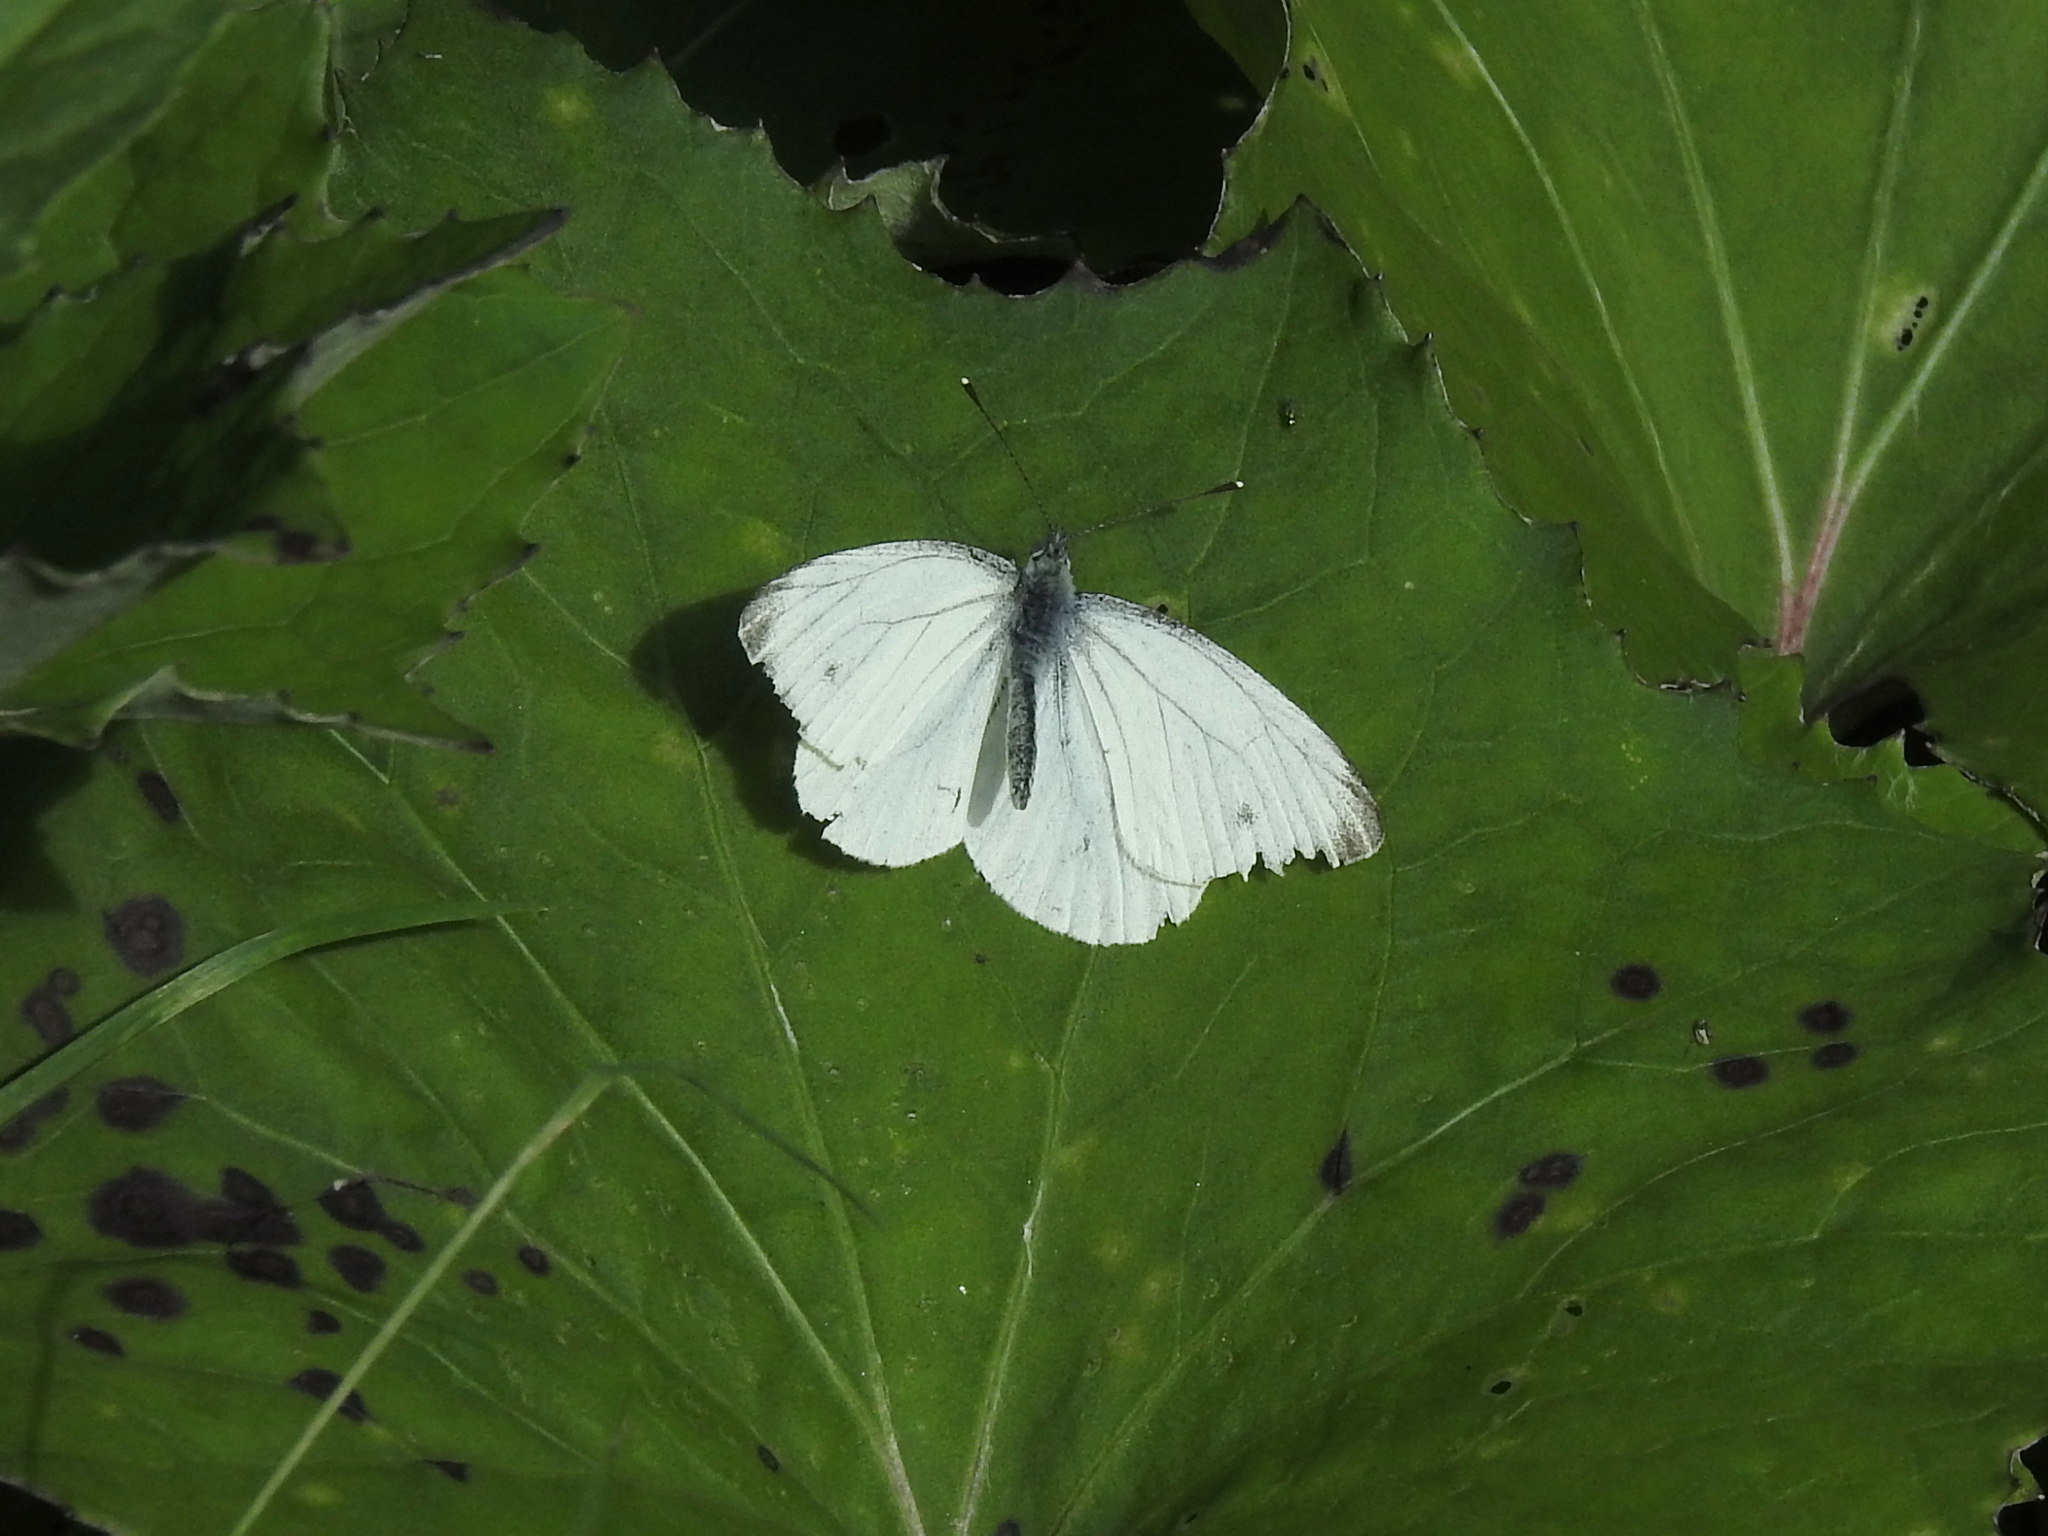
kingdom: Animalia
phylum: Arthropoda
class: Insecta
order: Lepidoptera
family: Pieridae
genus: Pieris
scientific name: Pieris napi
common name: Green-veined white
